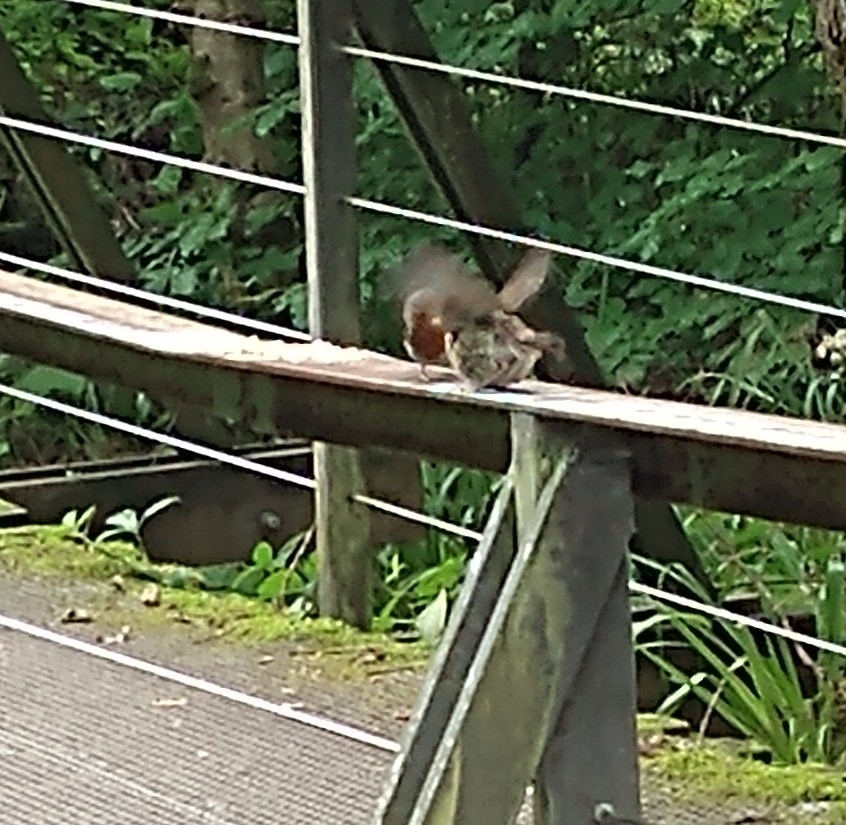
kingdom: Animalia
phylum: Chordata
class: Aves
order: Passeriformes
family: Muscicapidae
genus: Erithacus
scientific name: Erithacus rubecula
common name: European robin
